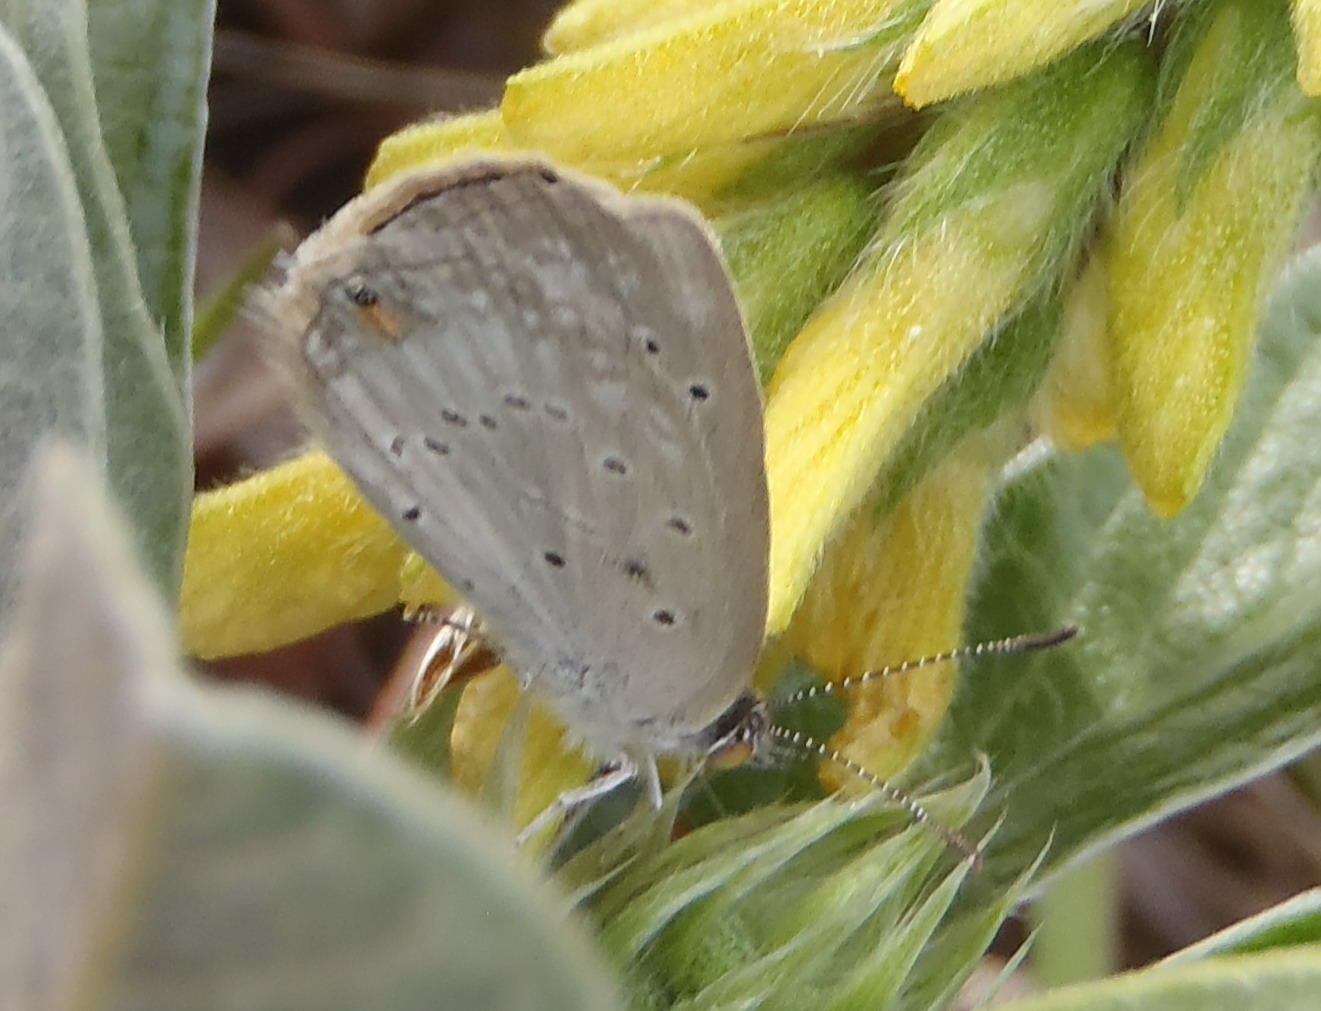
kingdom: Animalia
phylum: Arthropoda
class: Insecta
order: Lepidoptera
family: Lycaenidae
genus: Cupido
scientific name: Cupido cissus
